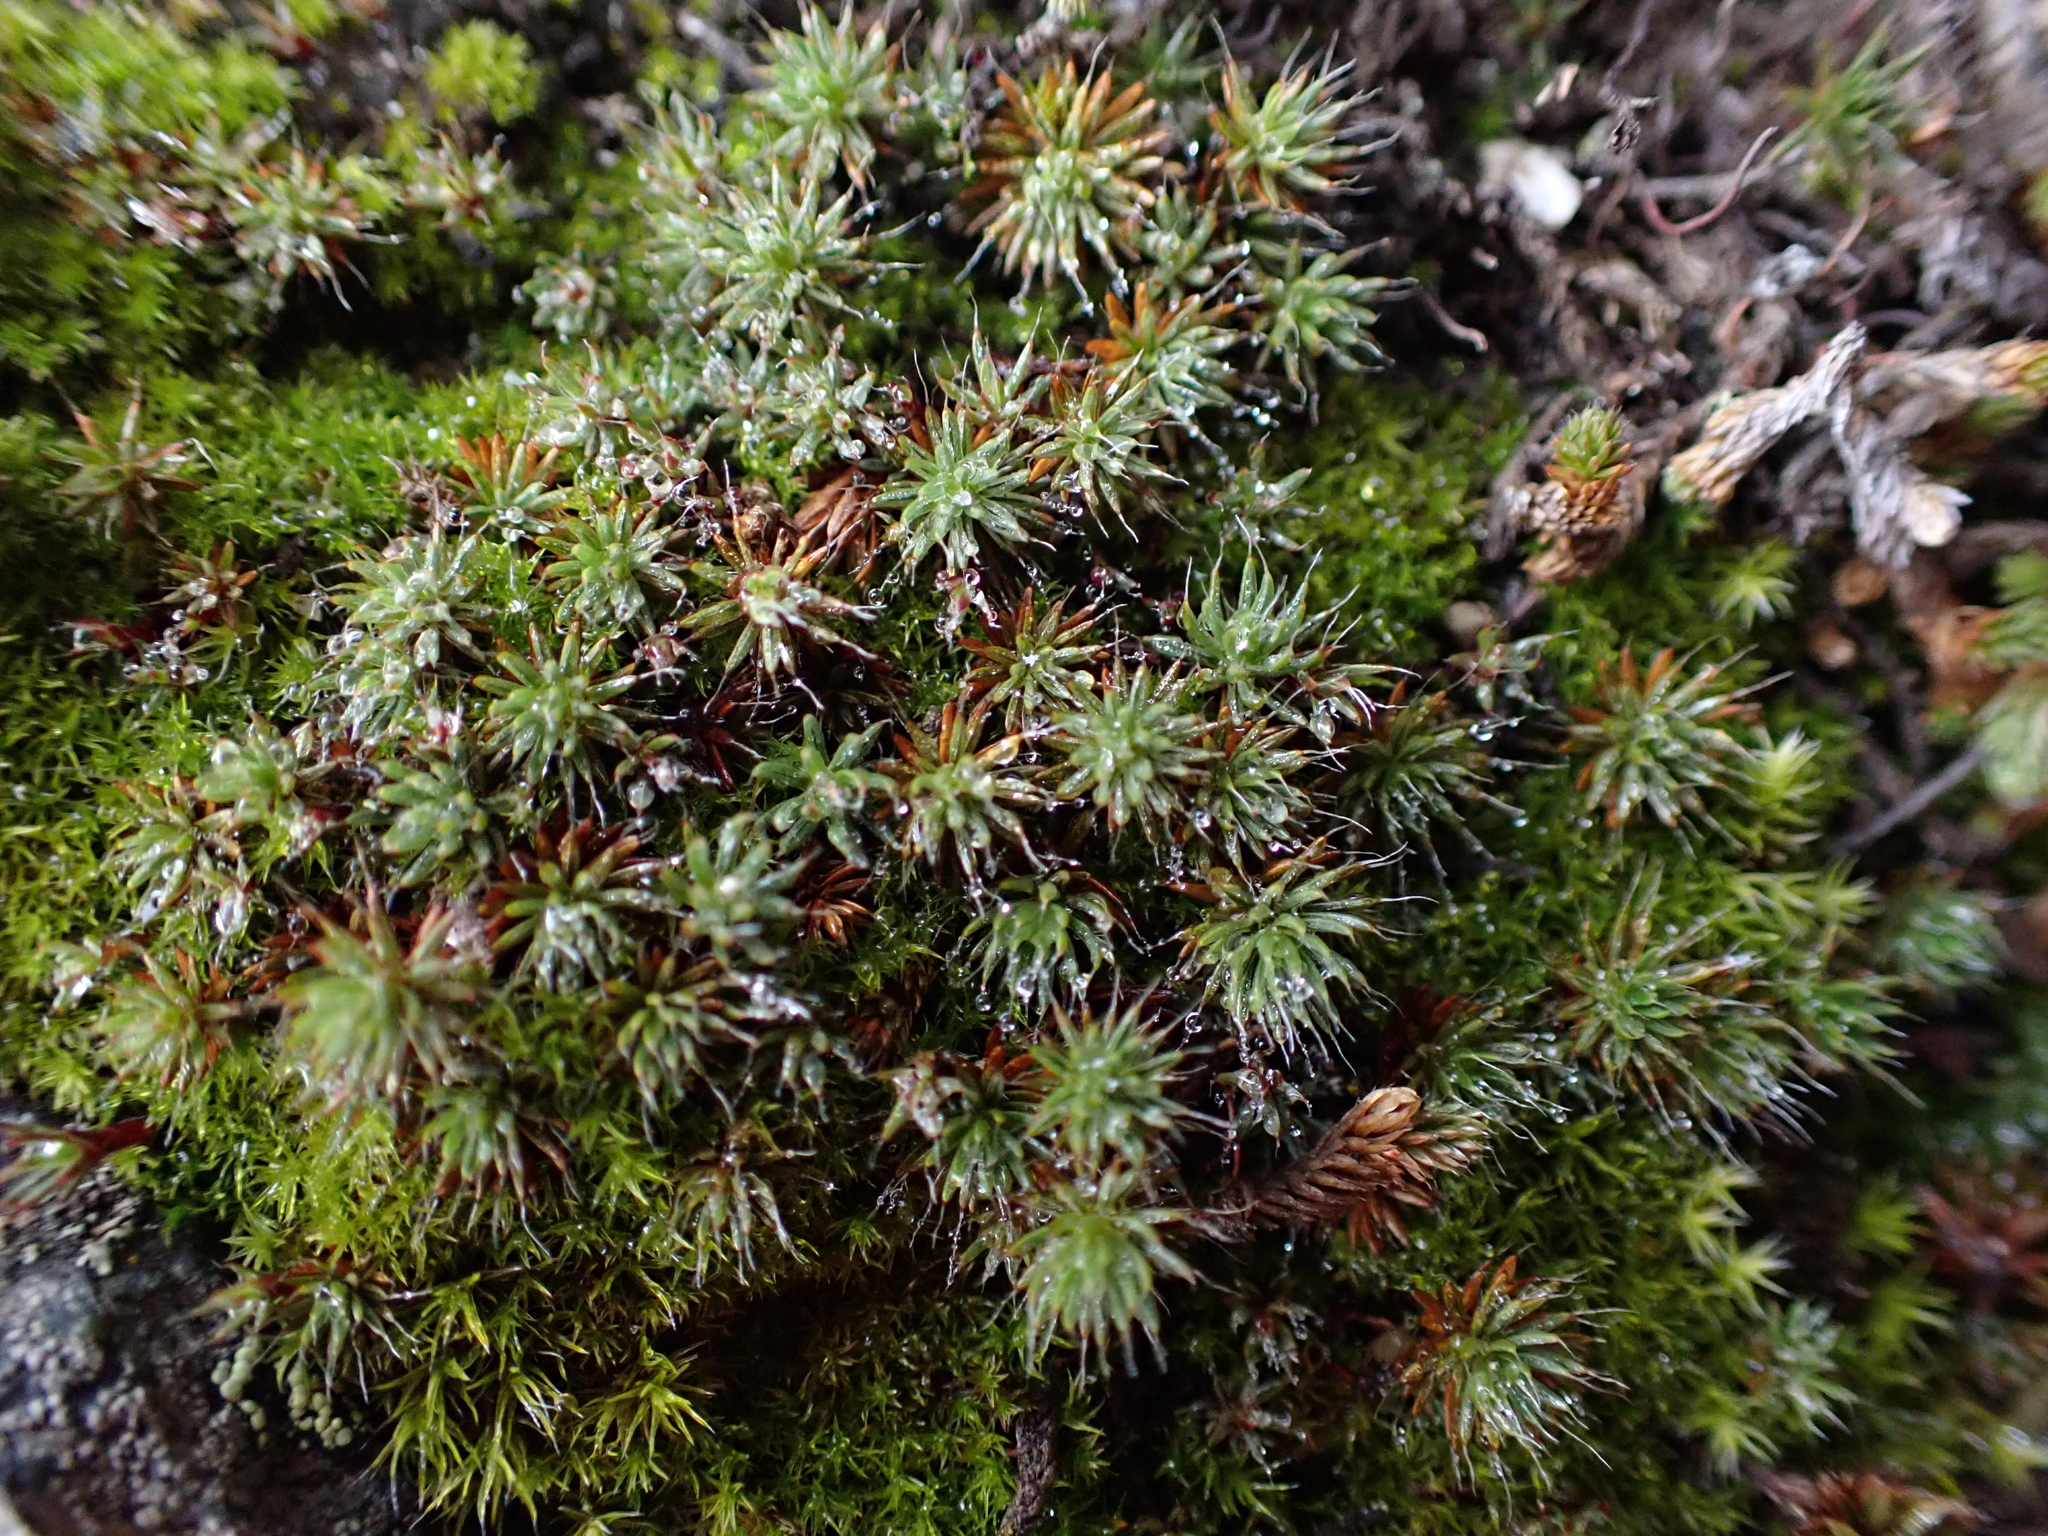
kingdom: Plantae
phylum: Bryophyta
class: Polytrichopsida
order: Polytrichales
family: Polytrichaceae
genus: Polytrichum
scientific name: Polytrichum piliferum
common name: Bristly haircap
